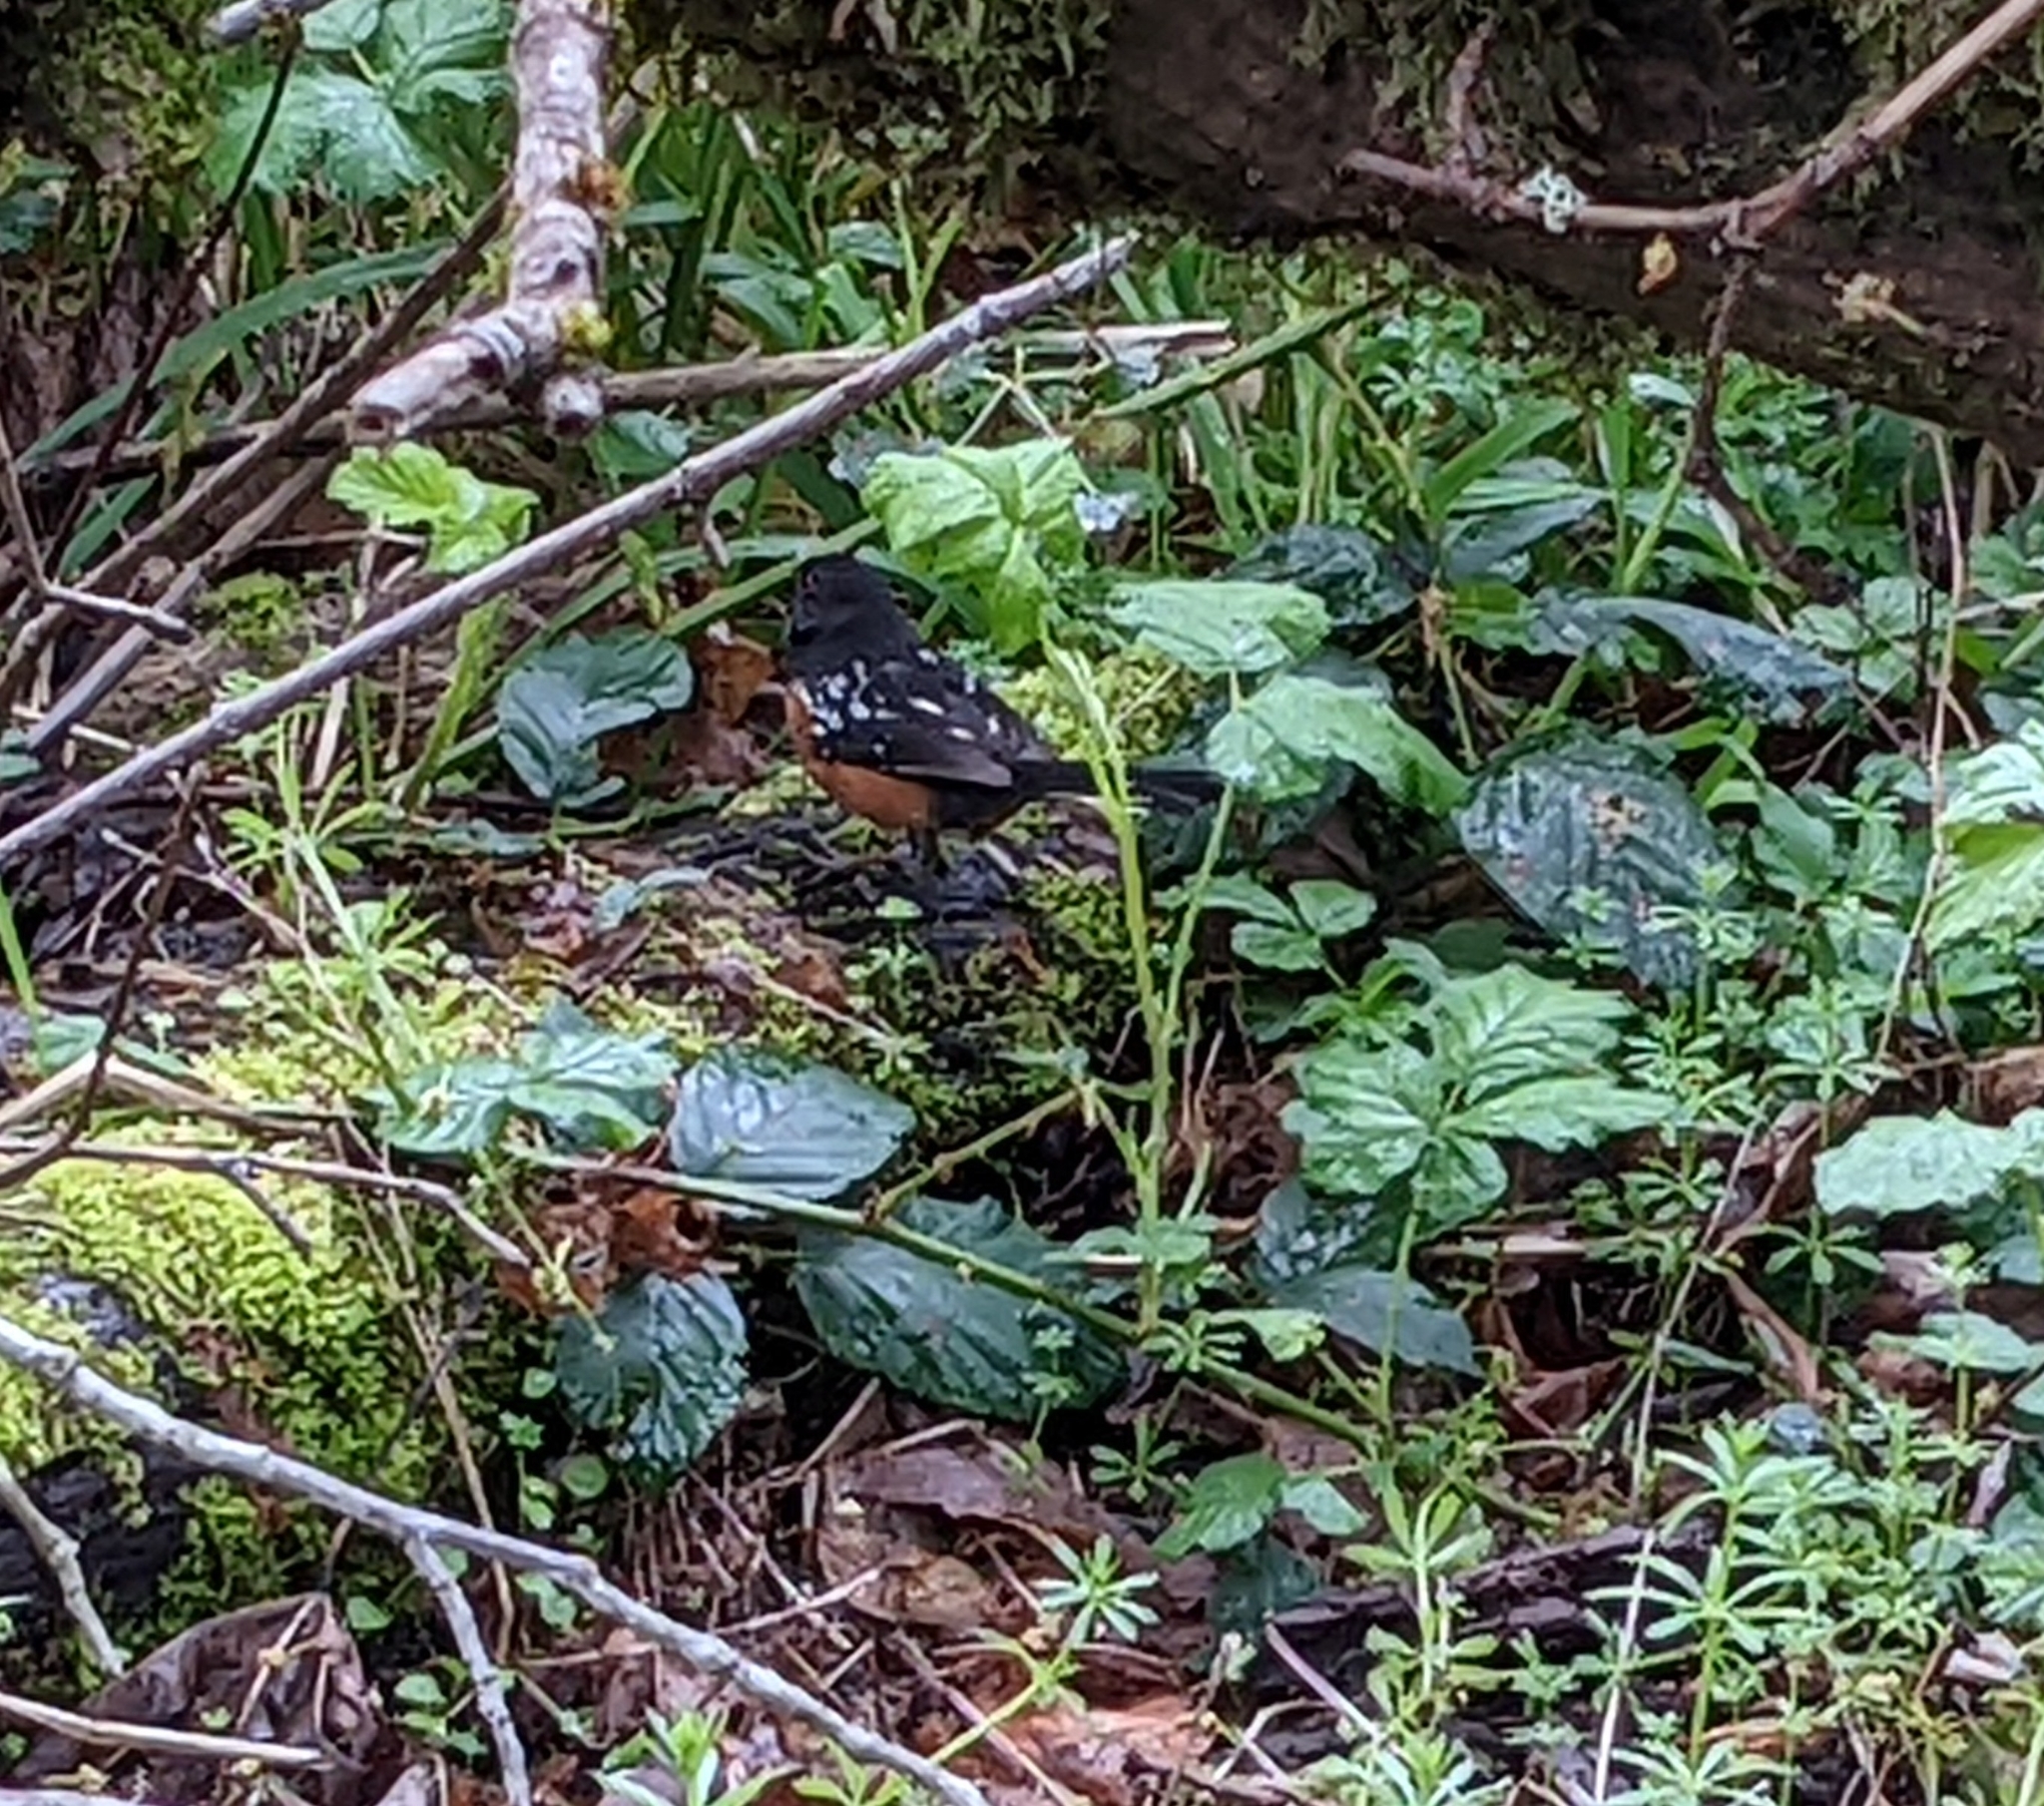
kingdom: Animalia
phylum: Chordata
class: Aves
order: Passeriformes
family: Passerellidae
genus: Pipilo
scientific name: Pipilo maculatus
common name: Spotted towhee
